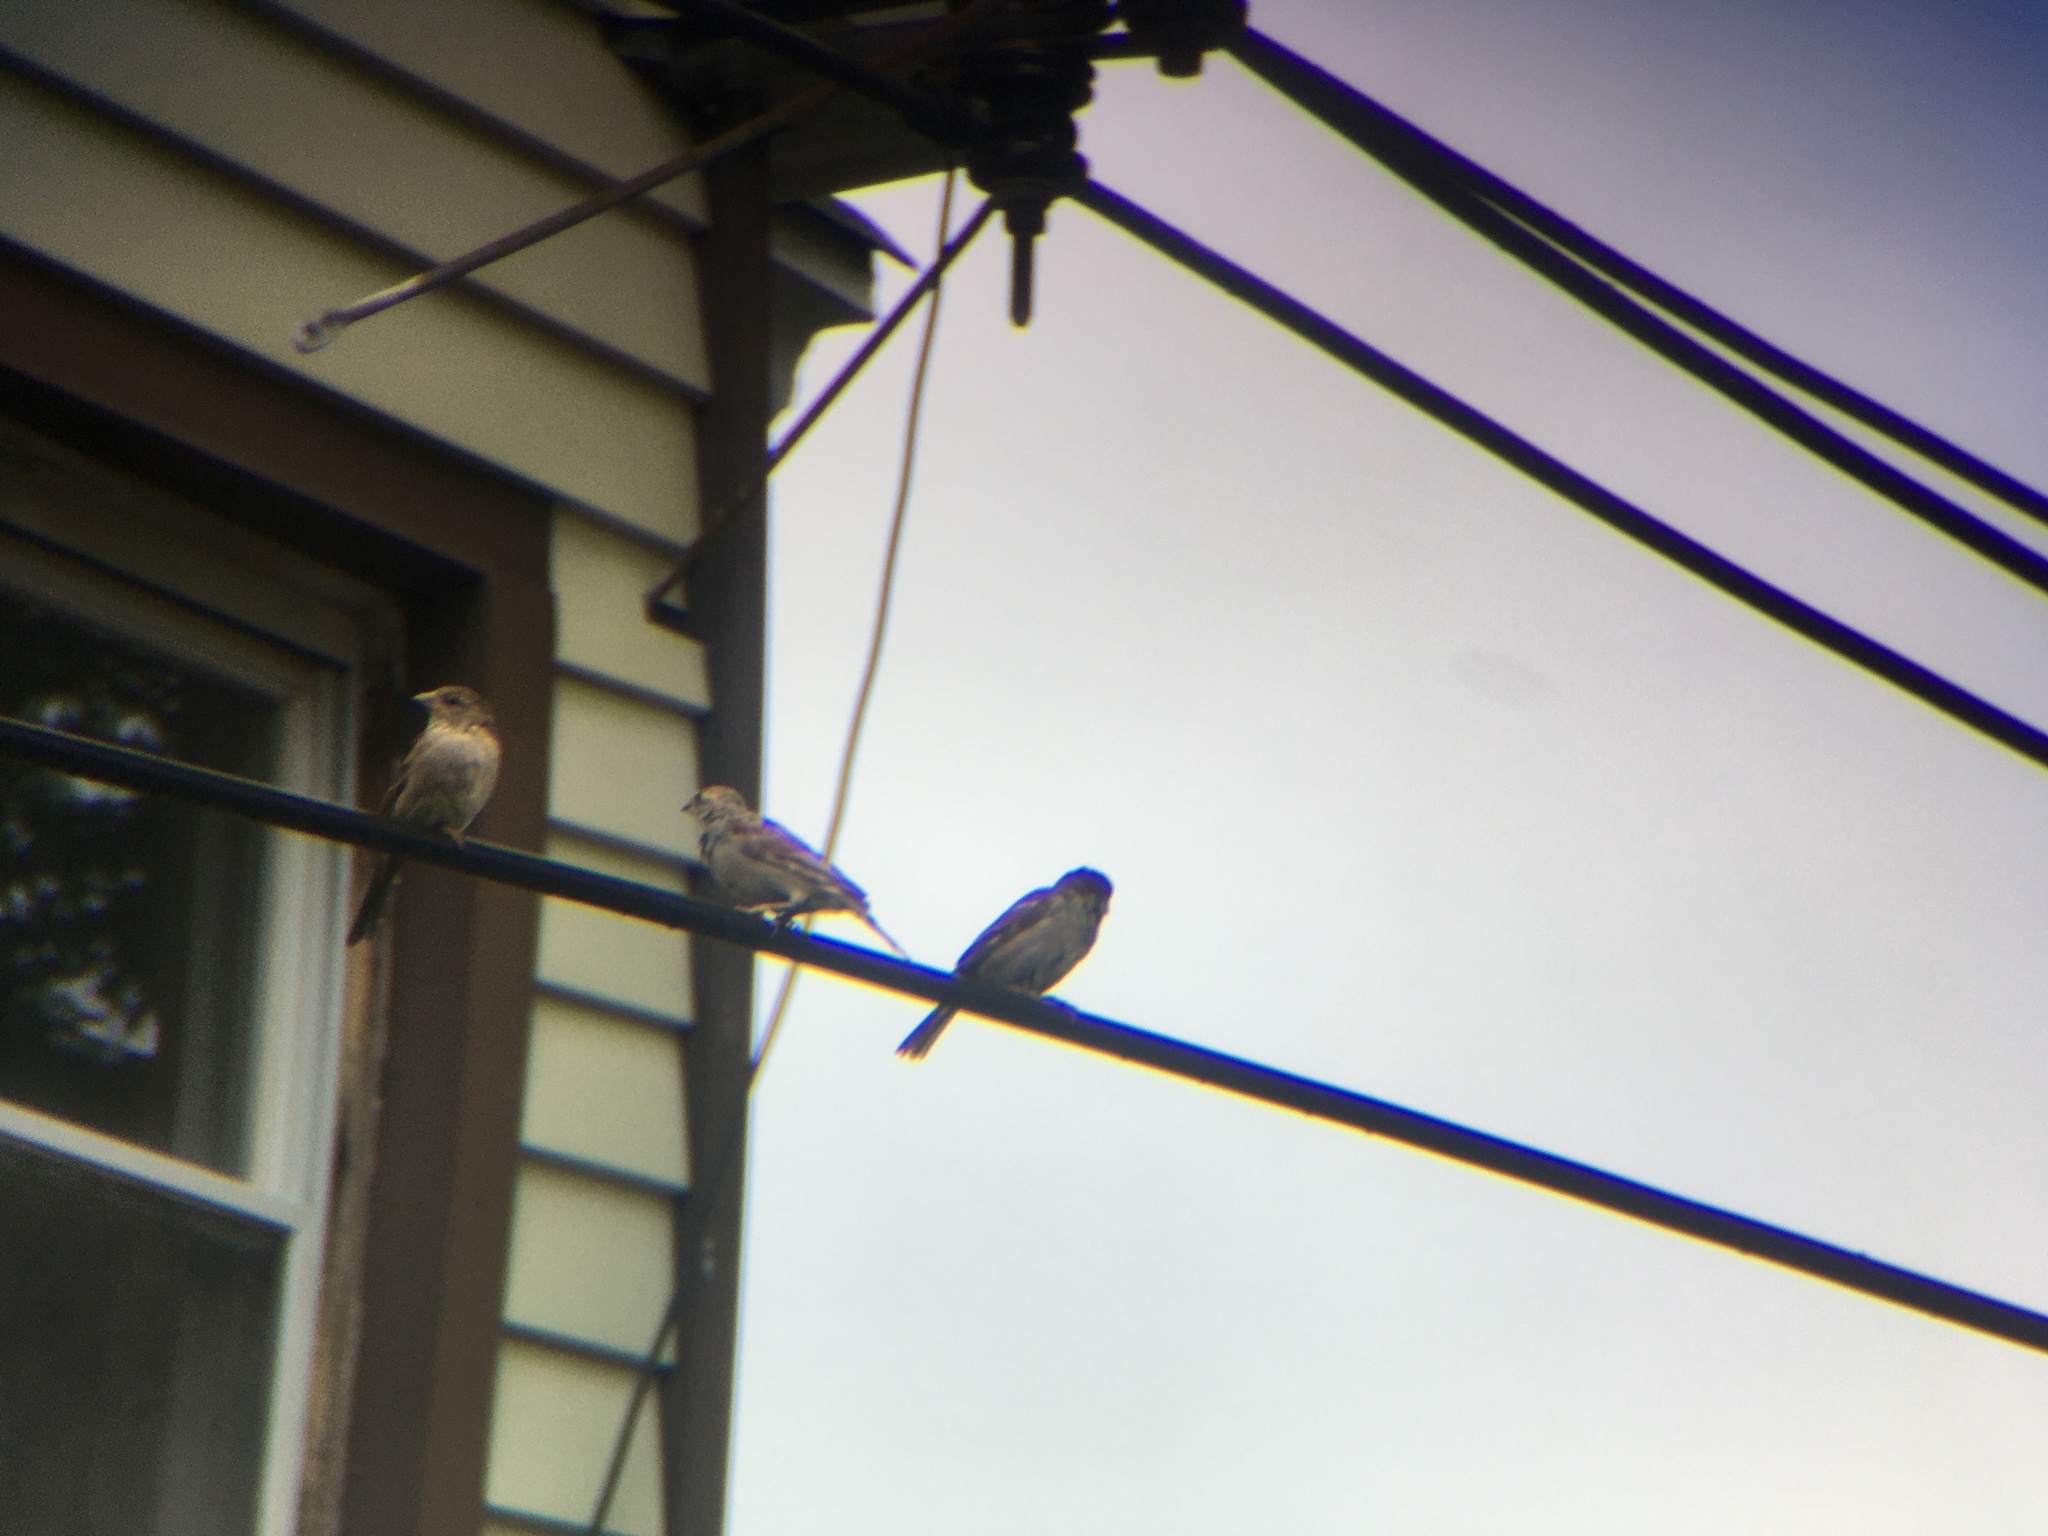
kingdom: Animalia
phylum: Chordata
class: Aves
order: Passeriformes
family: Passeridae
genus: Passer
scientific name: Passer domesticus
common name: House sparrow
